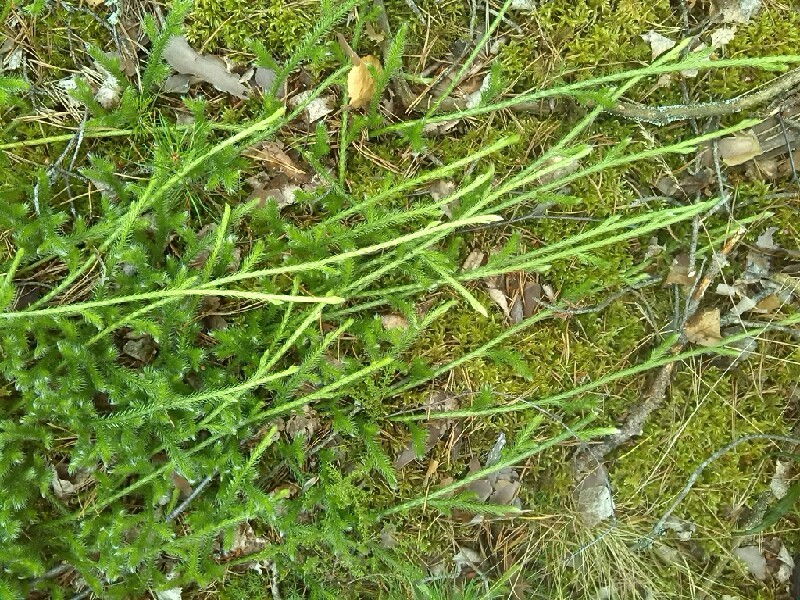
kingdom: Plantae
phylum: Tracheophyta
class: Lycopodiopsida
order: Lycopodiales
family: Lycopodiaceae
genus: Lycopodium
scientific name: Lycopodium clavatum
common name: Stag's-horn clubmoss
